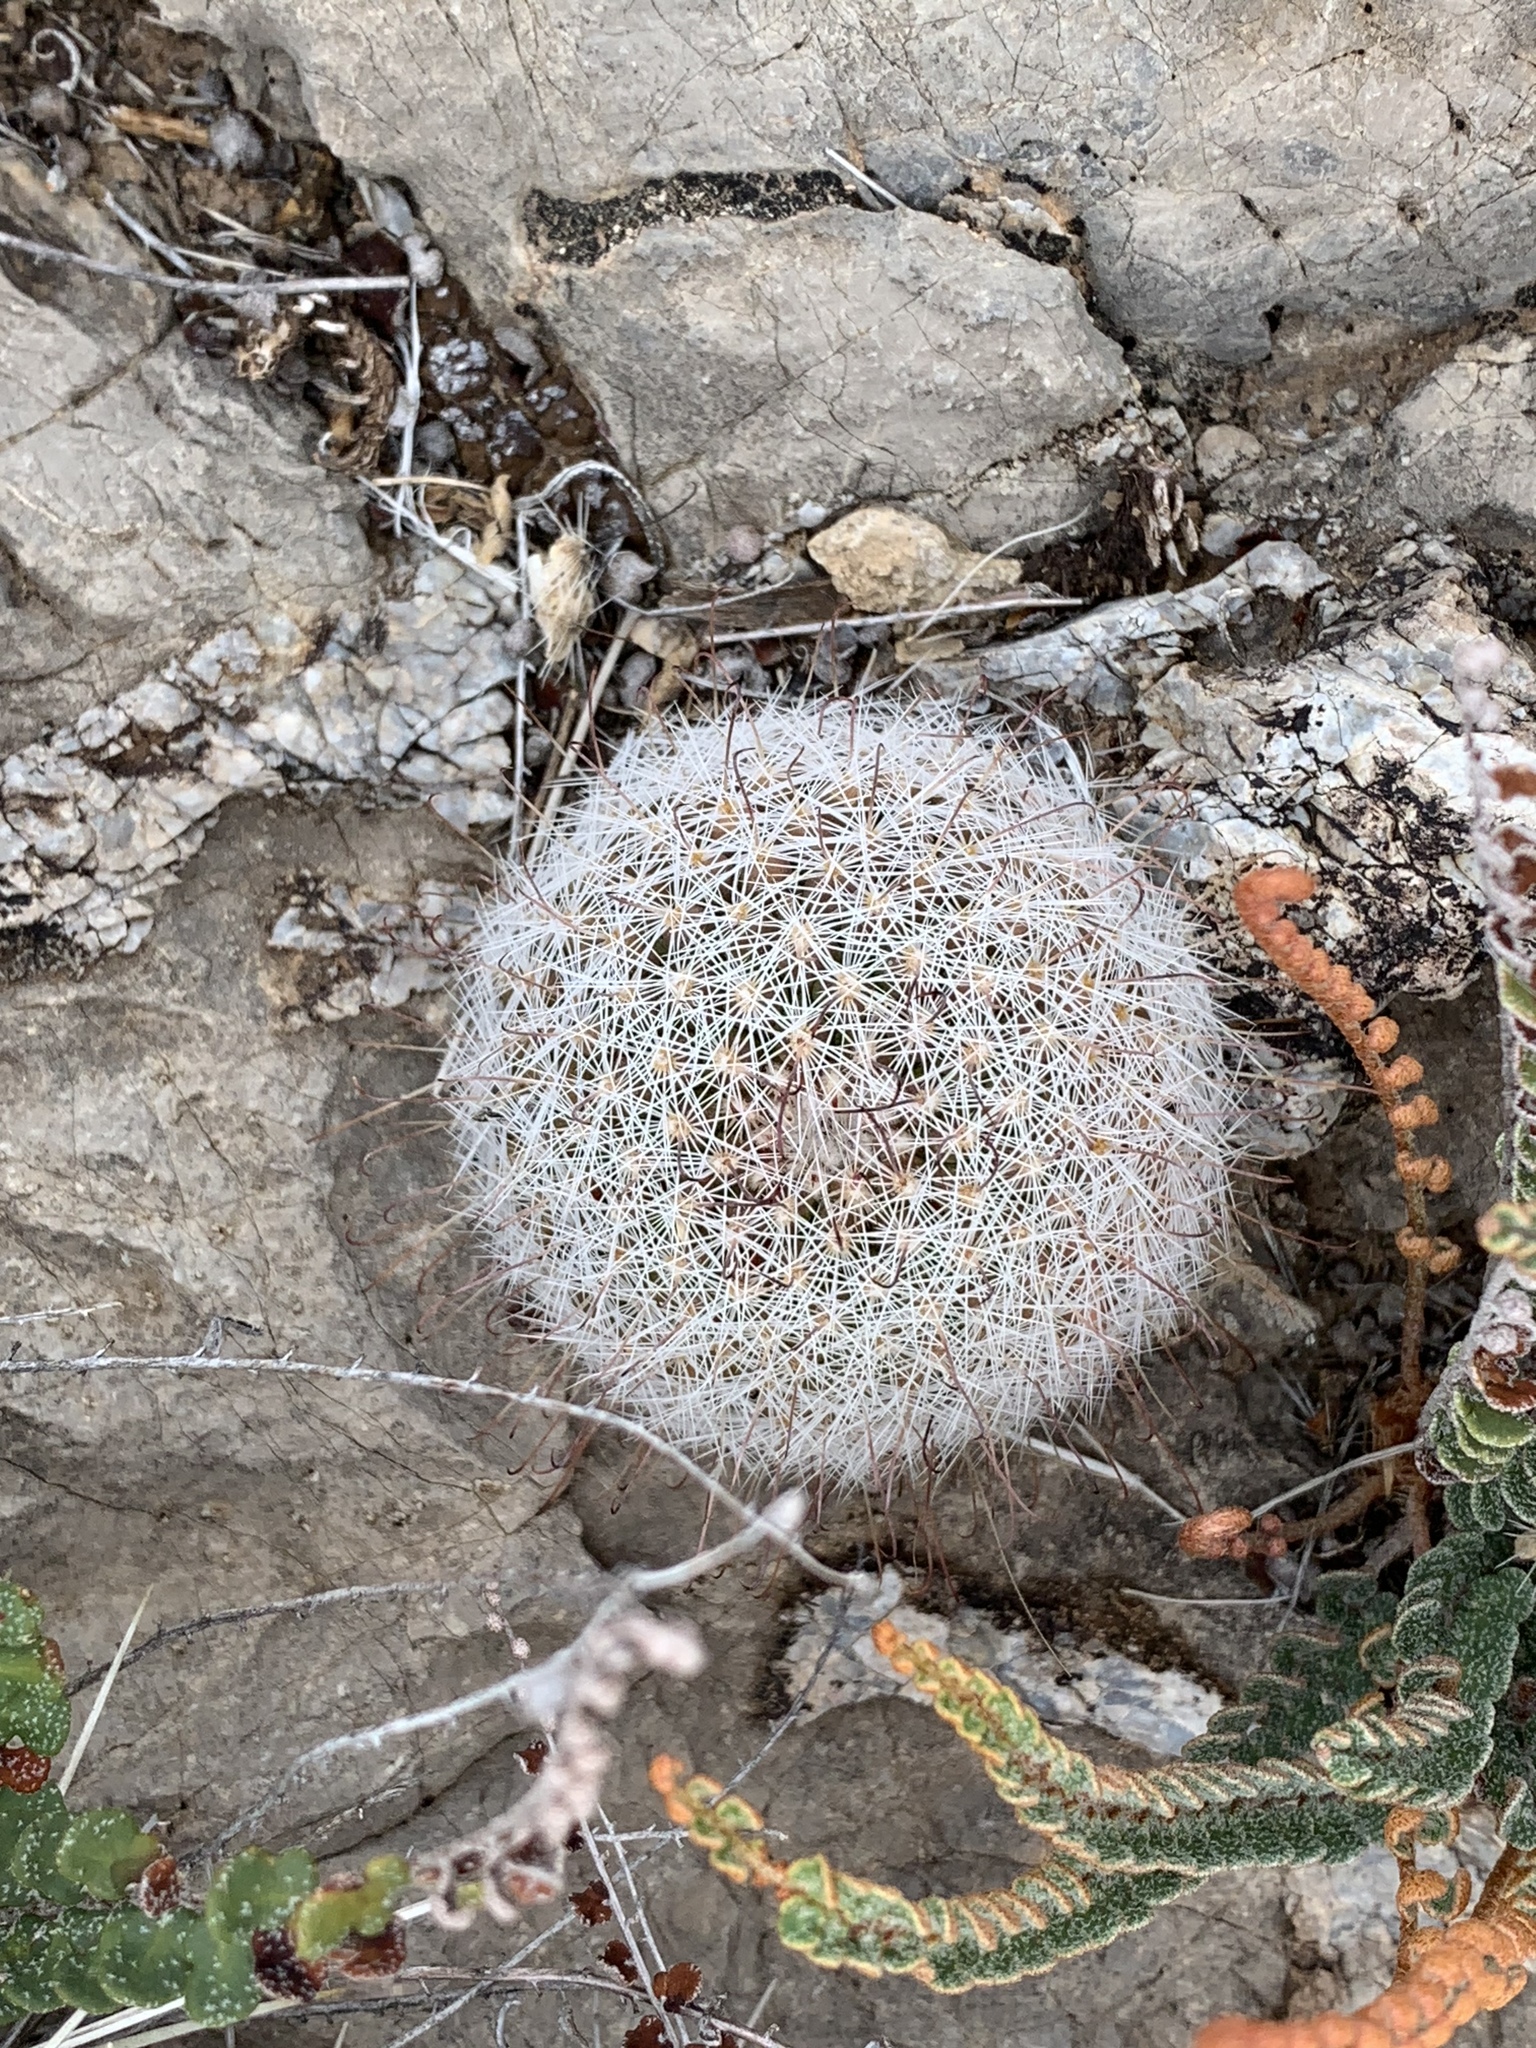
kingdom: Plantae
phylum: Tracheophyta
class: Magnoliopsida
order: Caryophyllales
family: Cactaceae
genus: Cochemiea
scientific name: Cochemiea grahamii
